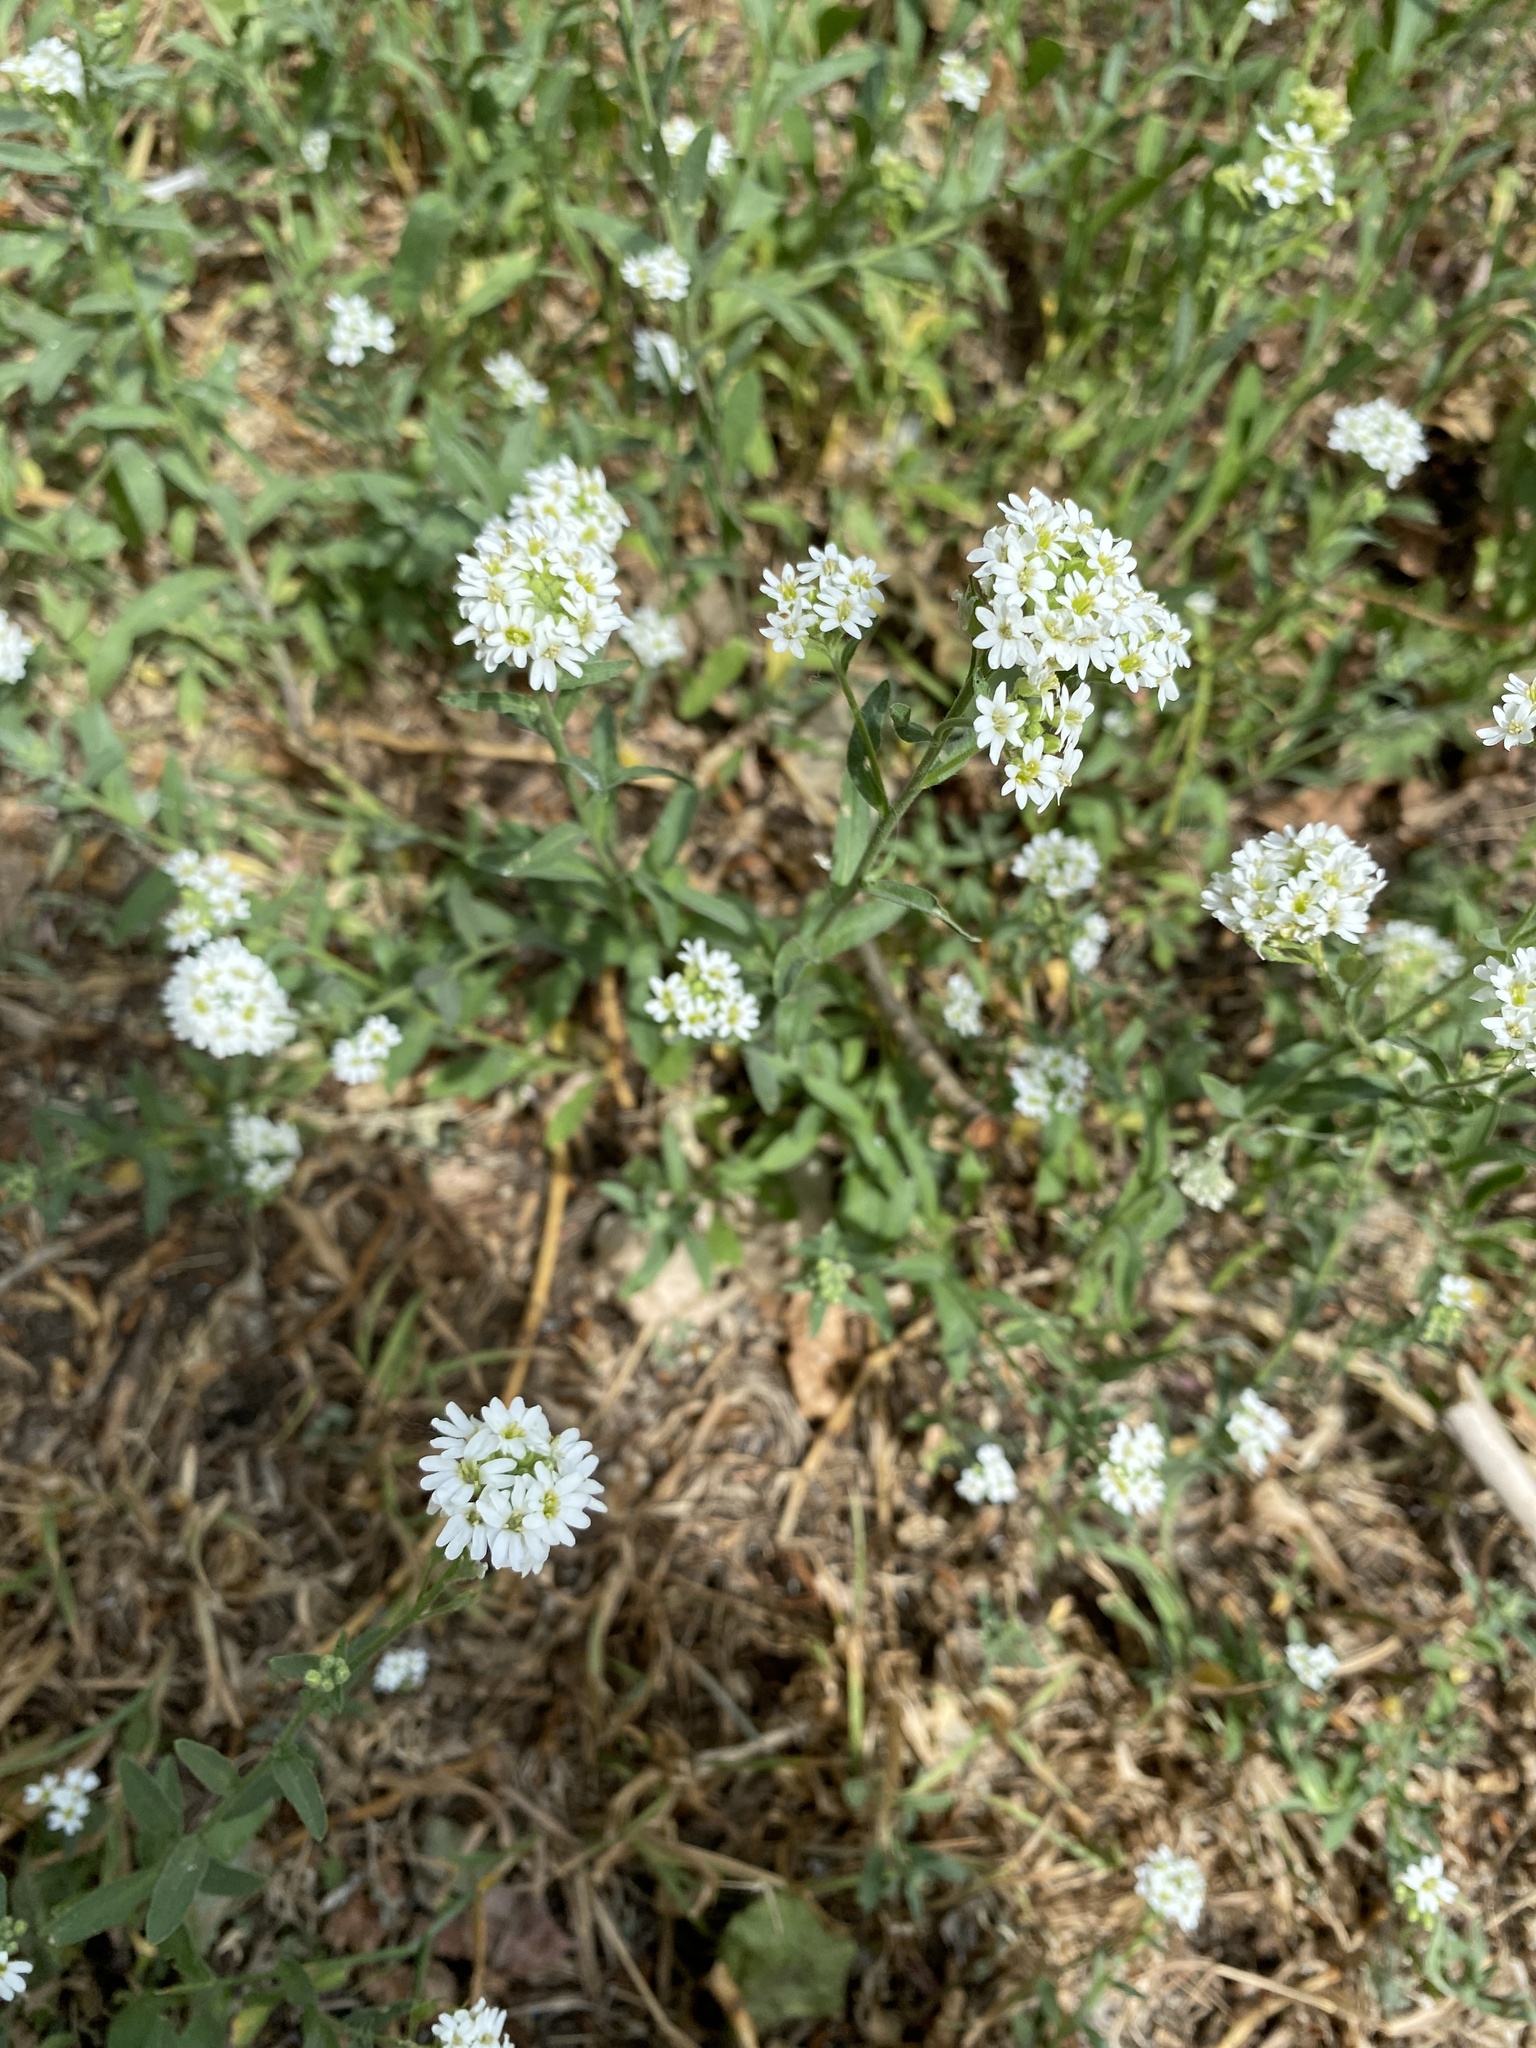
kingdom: Plantae
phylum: Tracheophyta
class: Magnoliopsida
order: Brassicales
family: Brassicaceae
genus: Berteroa
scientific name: Berteroa incana
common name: Hoary alison
